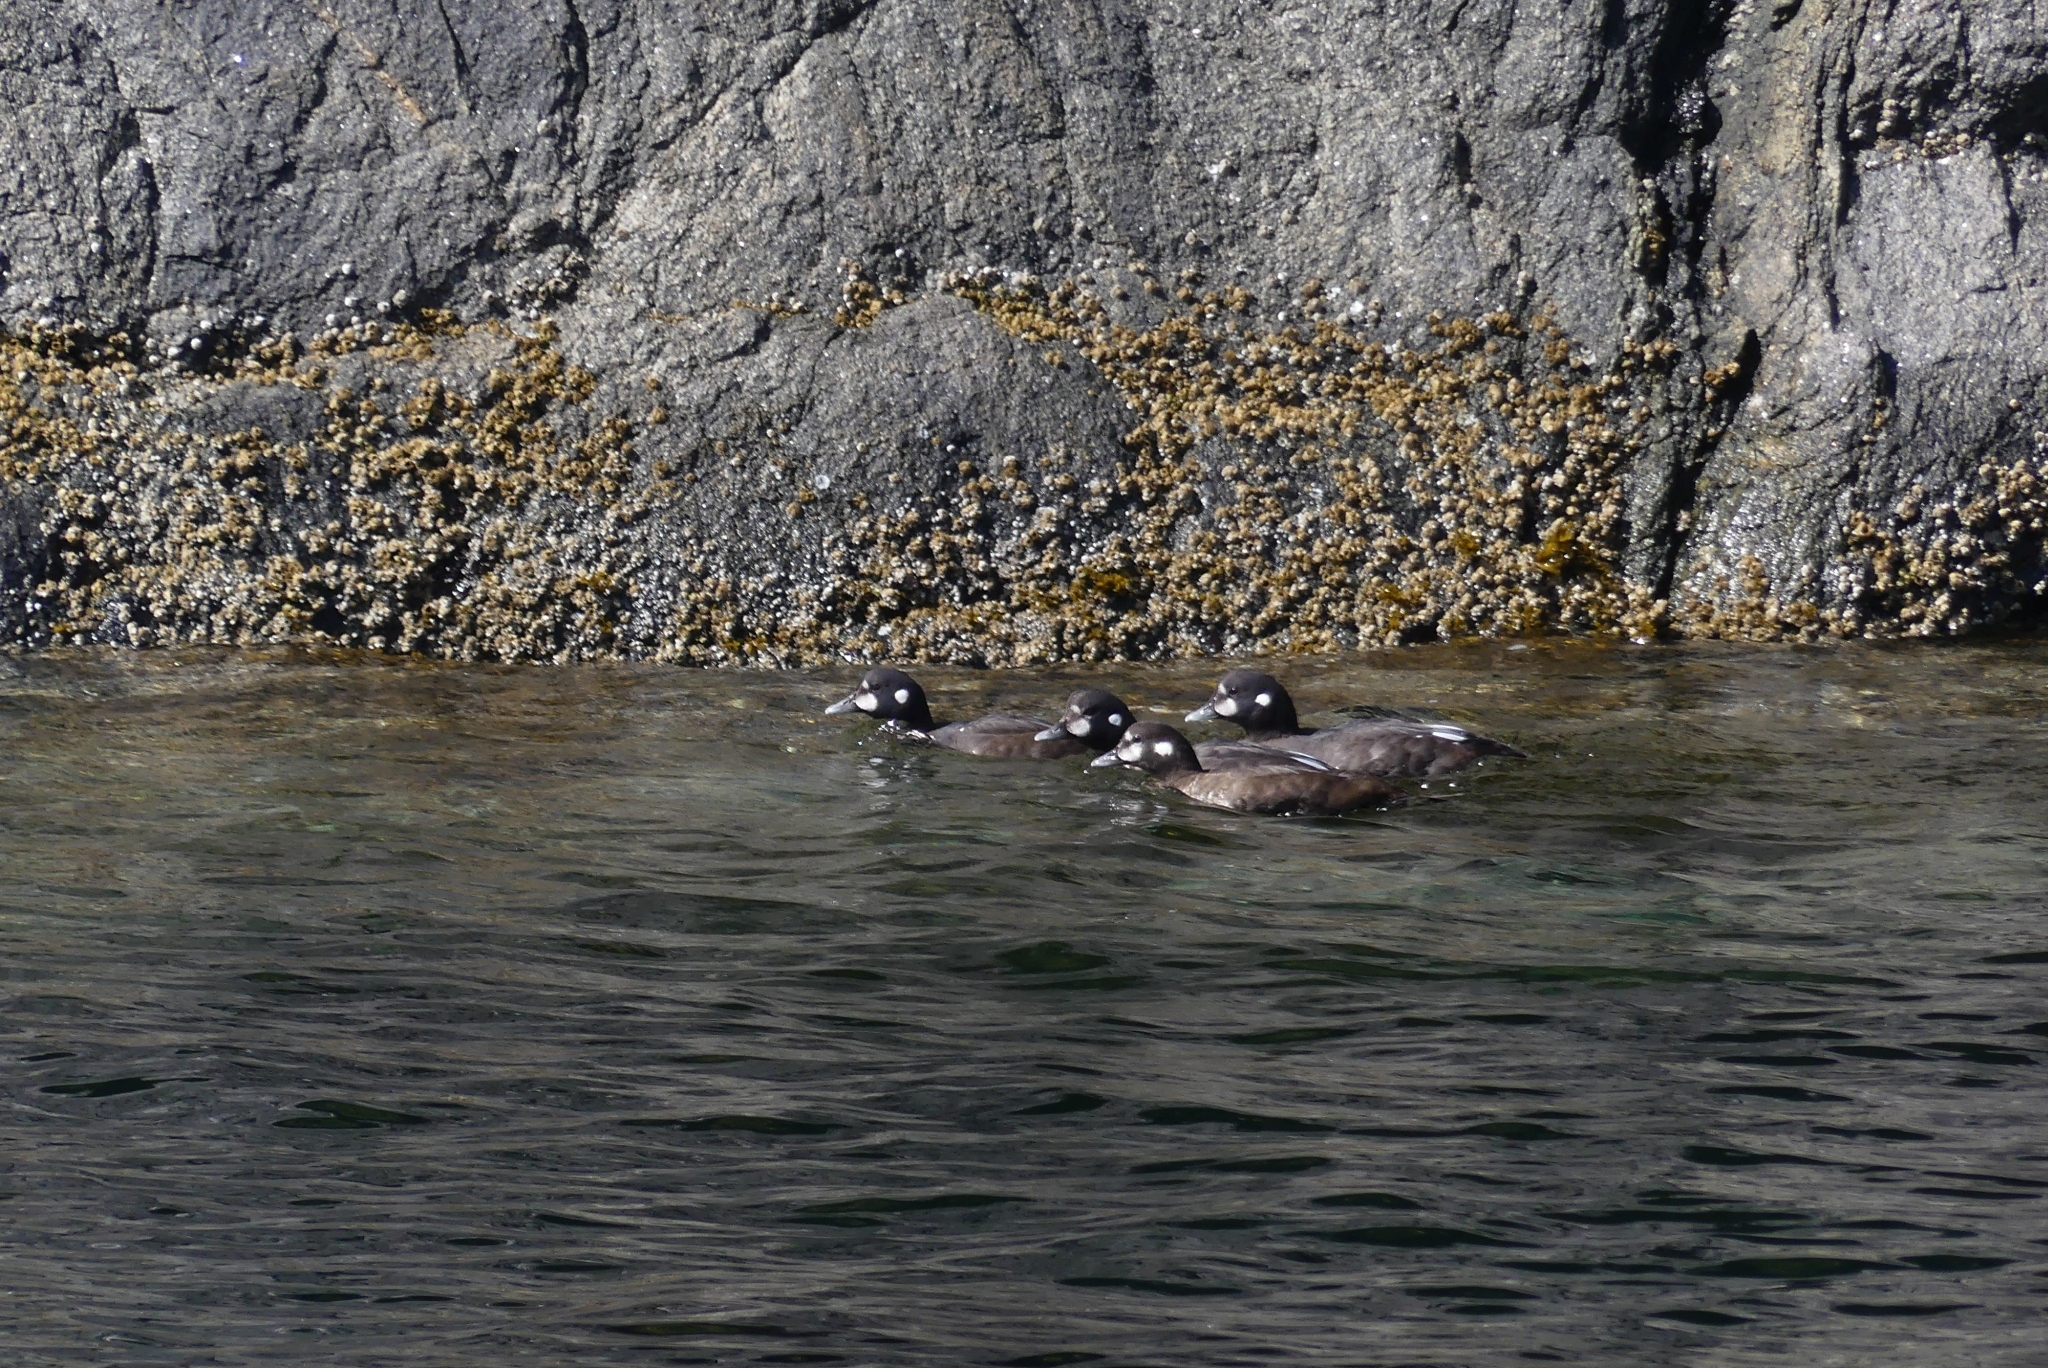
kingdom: Animalia
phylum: Chordata
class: Aves
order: Anseriformes
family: Anatidae
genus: Histrionicus
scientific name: Histrionicus histrionicus
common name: Harlequin duck
